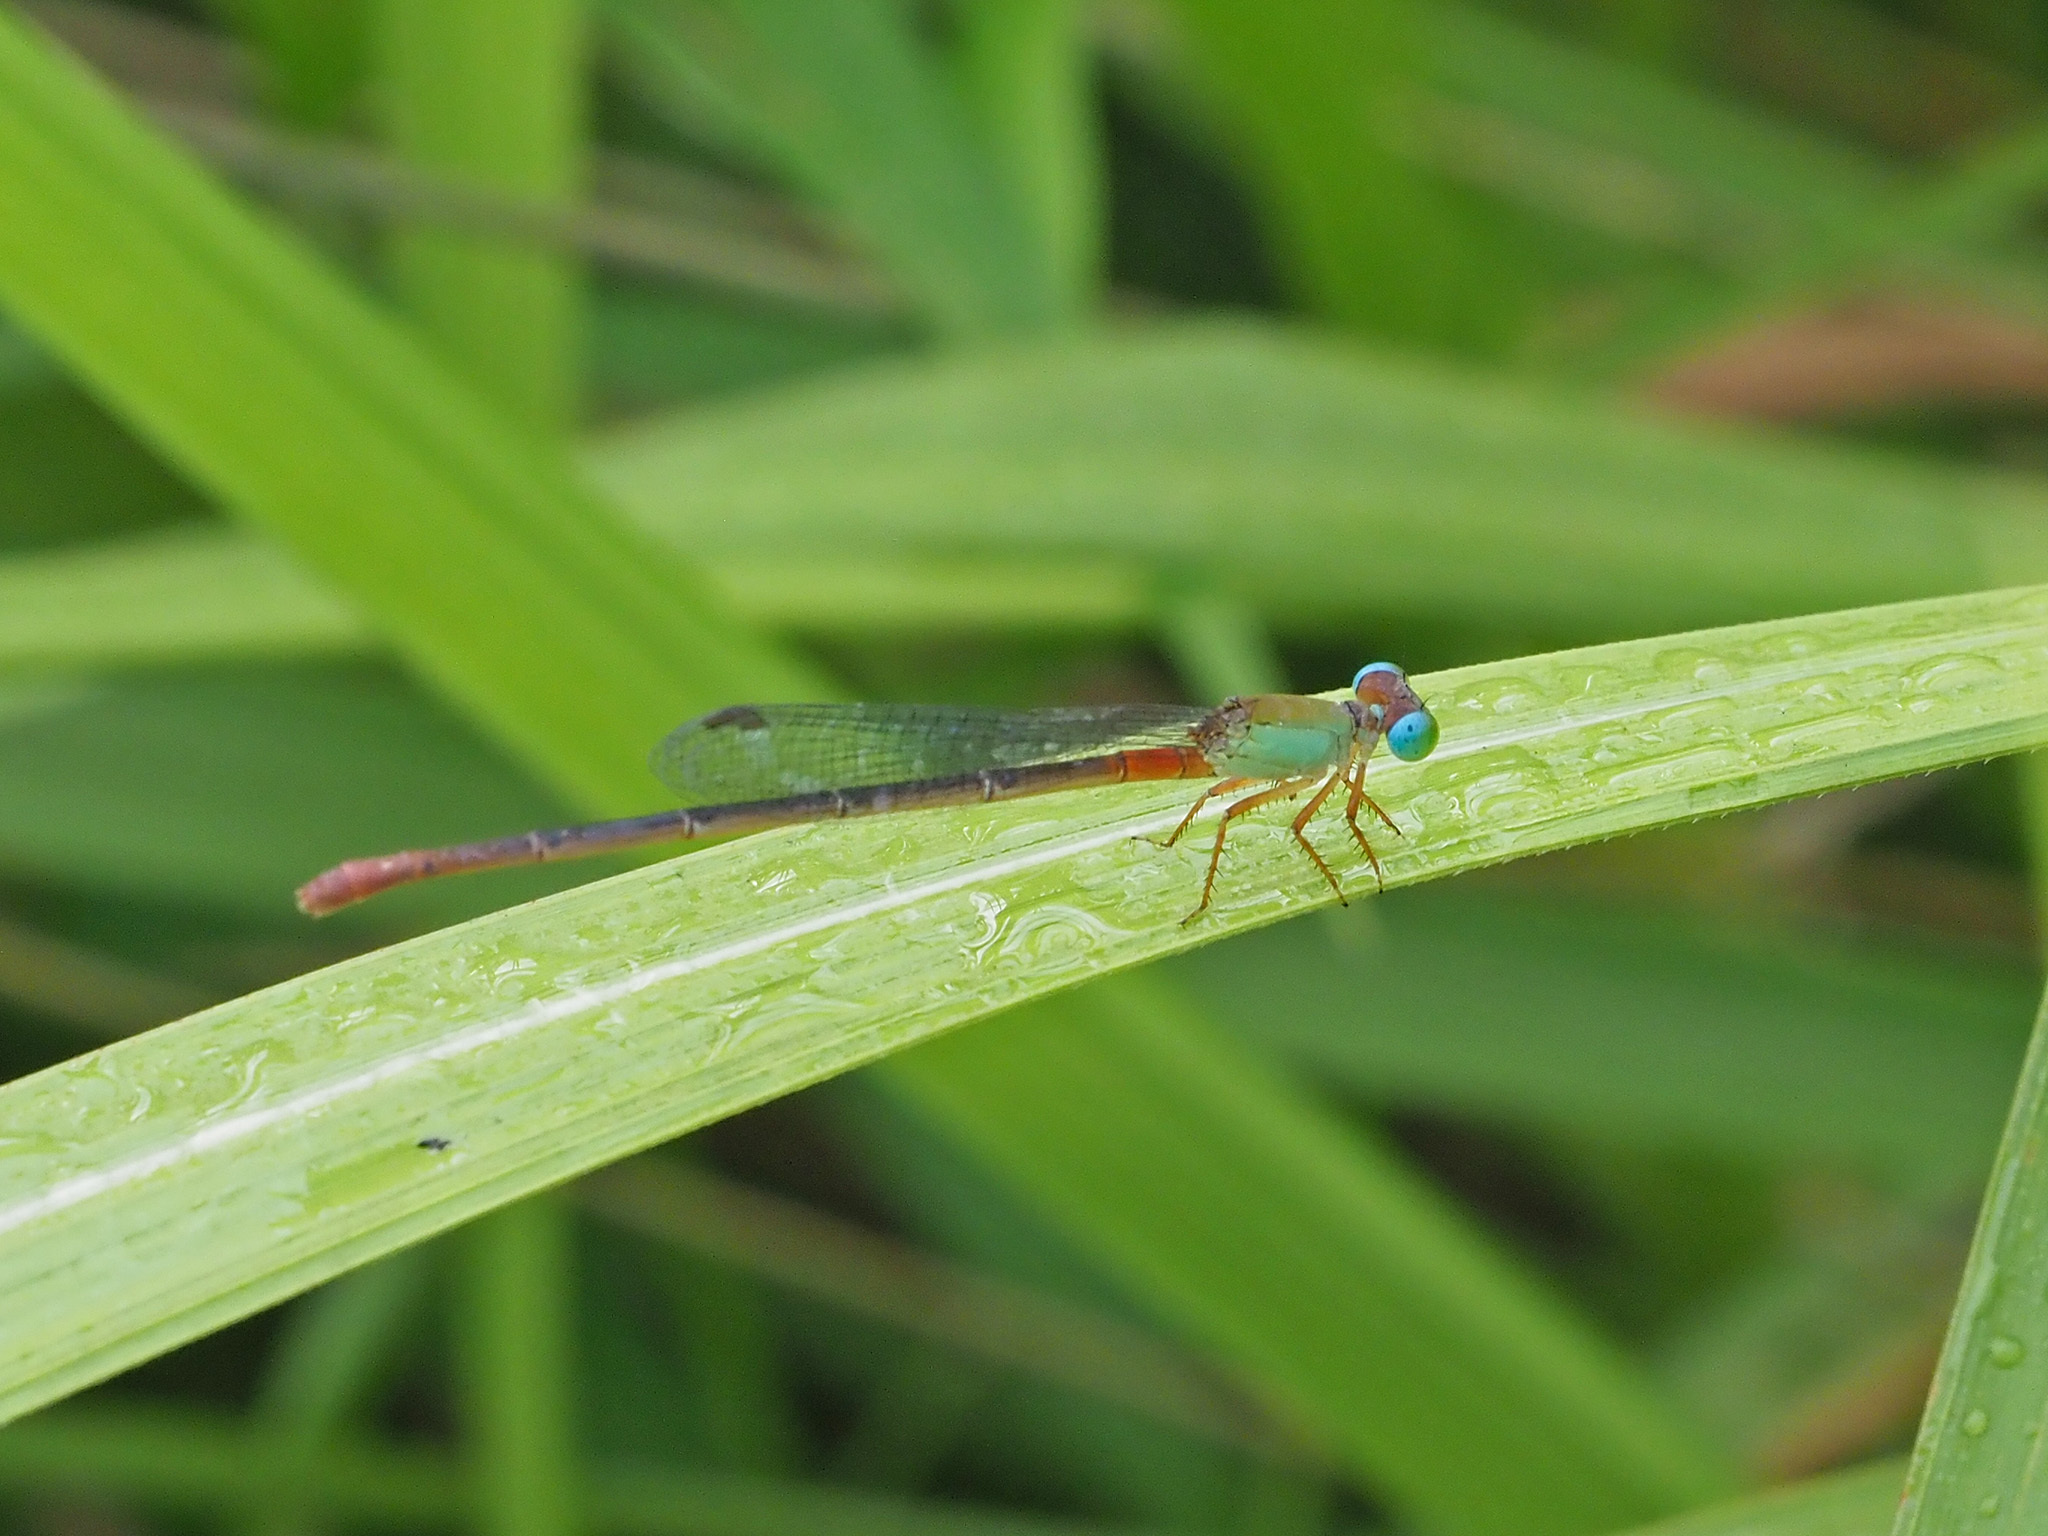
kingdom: Animalia
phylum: Arthropoda
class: Insecta
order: Odonata
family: Coenagrionidae
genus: Ceriagrion
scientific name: Ceriagrion cerinorubellum
